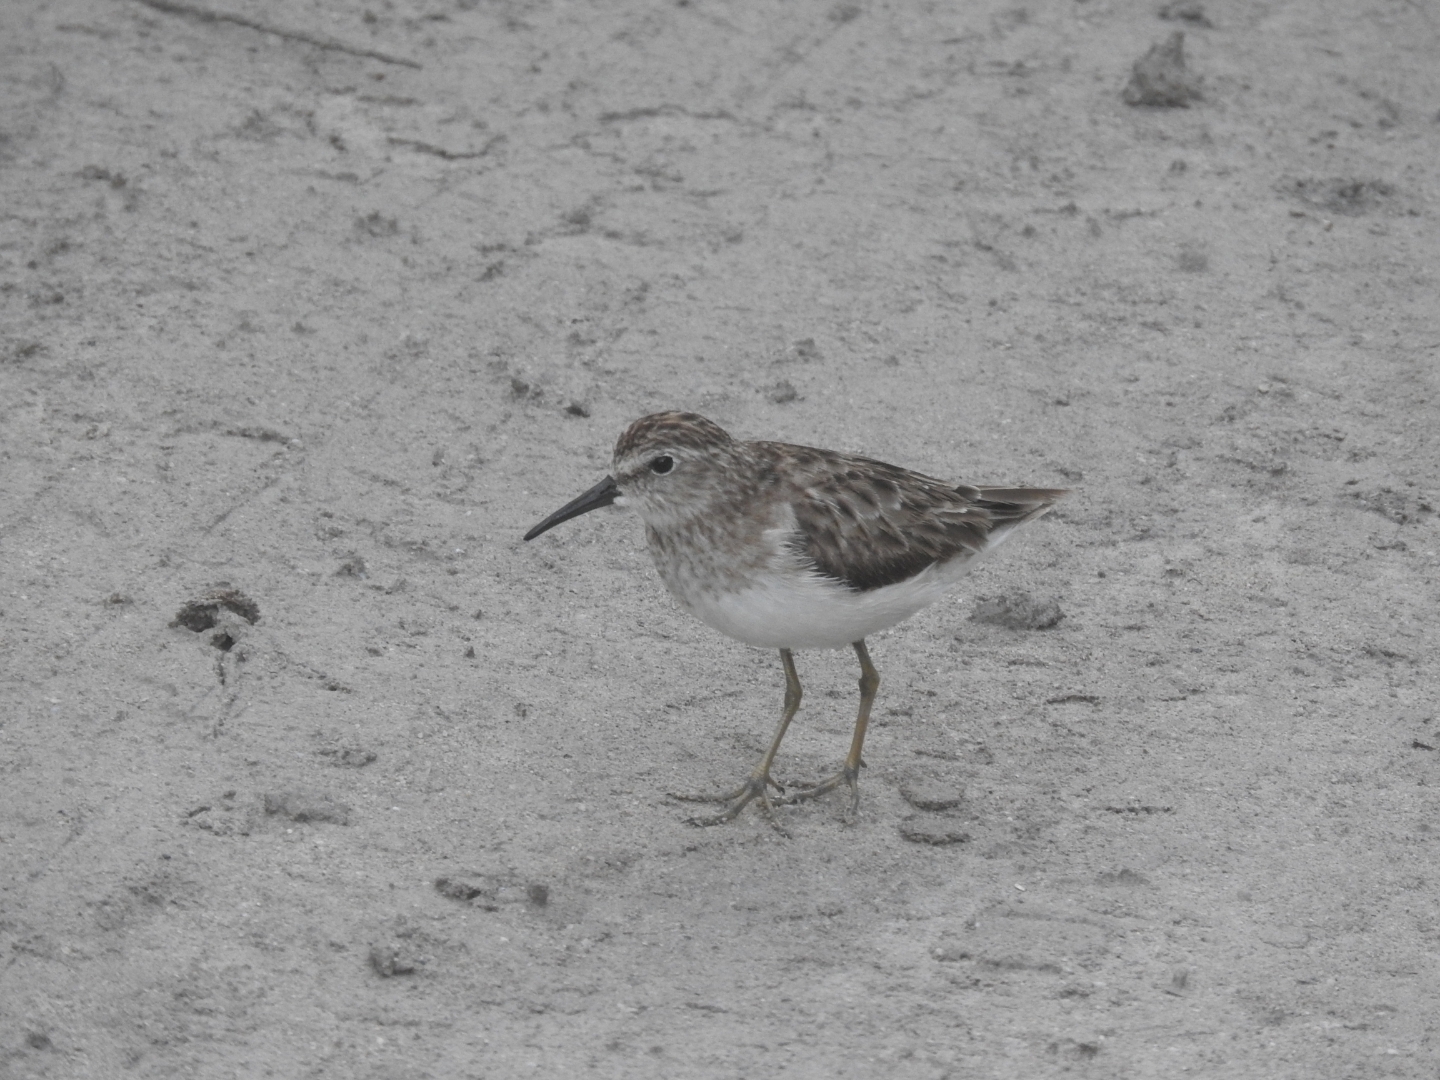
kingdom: Animalia
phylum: Chordata
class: Aves
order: Charadriiformes
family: Scolopacidae
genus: Calidris
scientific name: Calidris minutilla
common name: Least sandpiper
